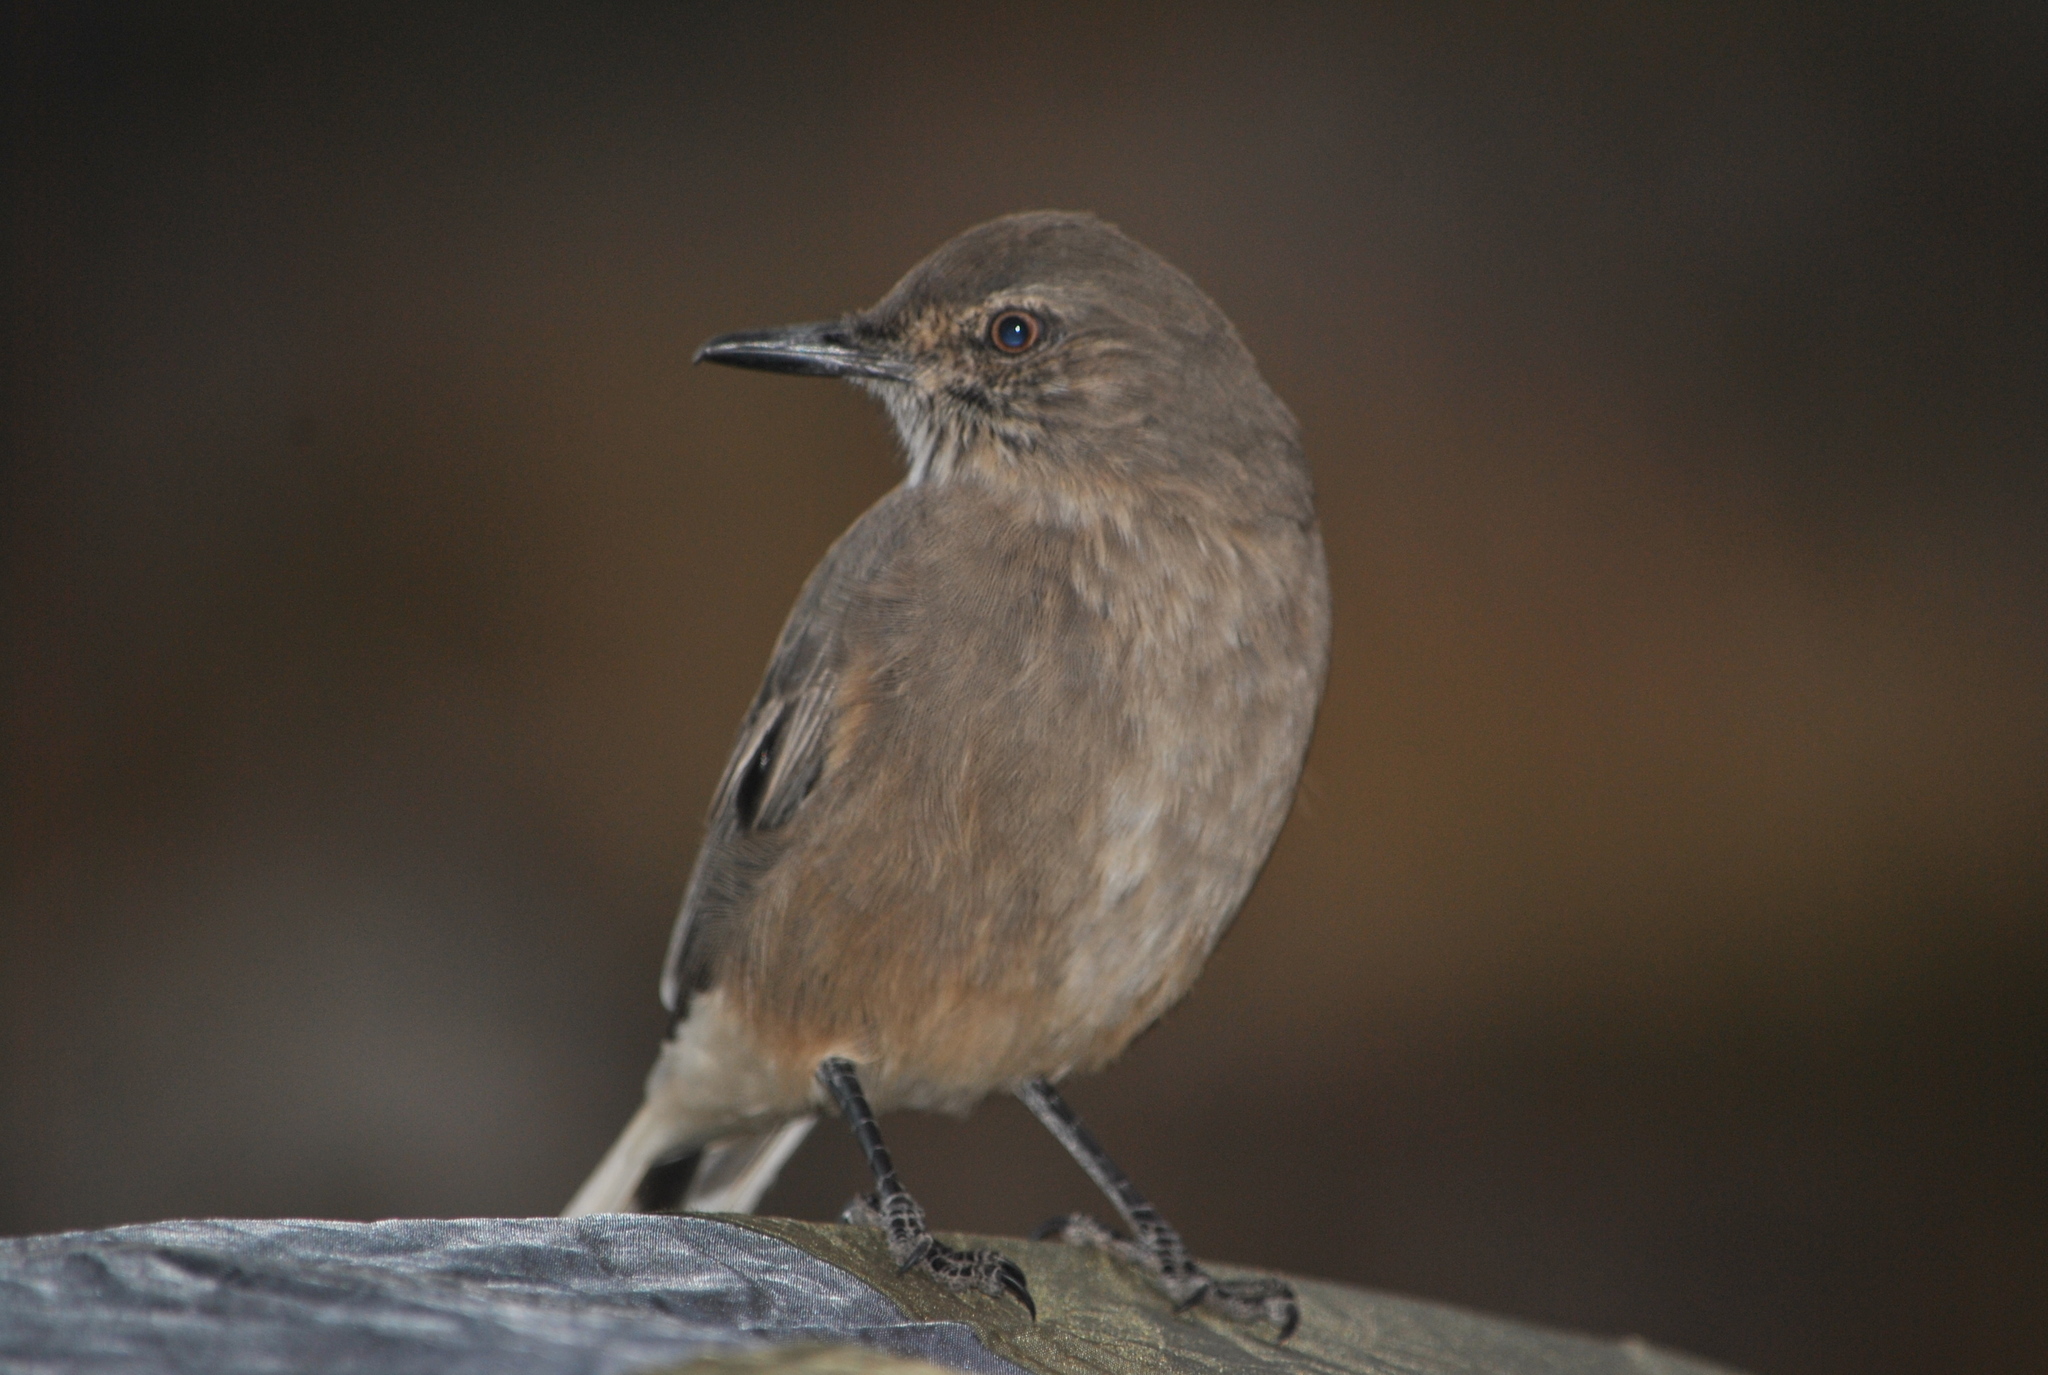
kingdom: Animalia
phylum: Chordata
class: Aves
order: Passeriformes
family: Tyrannidae
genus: Agriornis
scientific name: Agriornis montanus
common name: Black-billed shrike-tyrant
